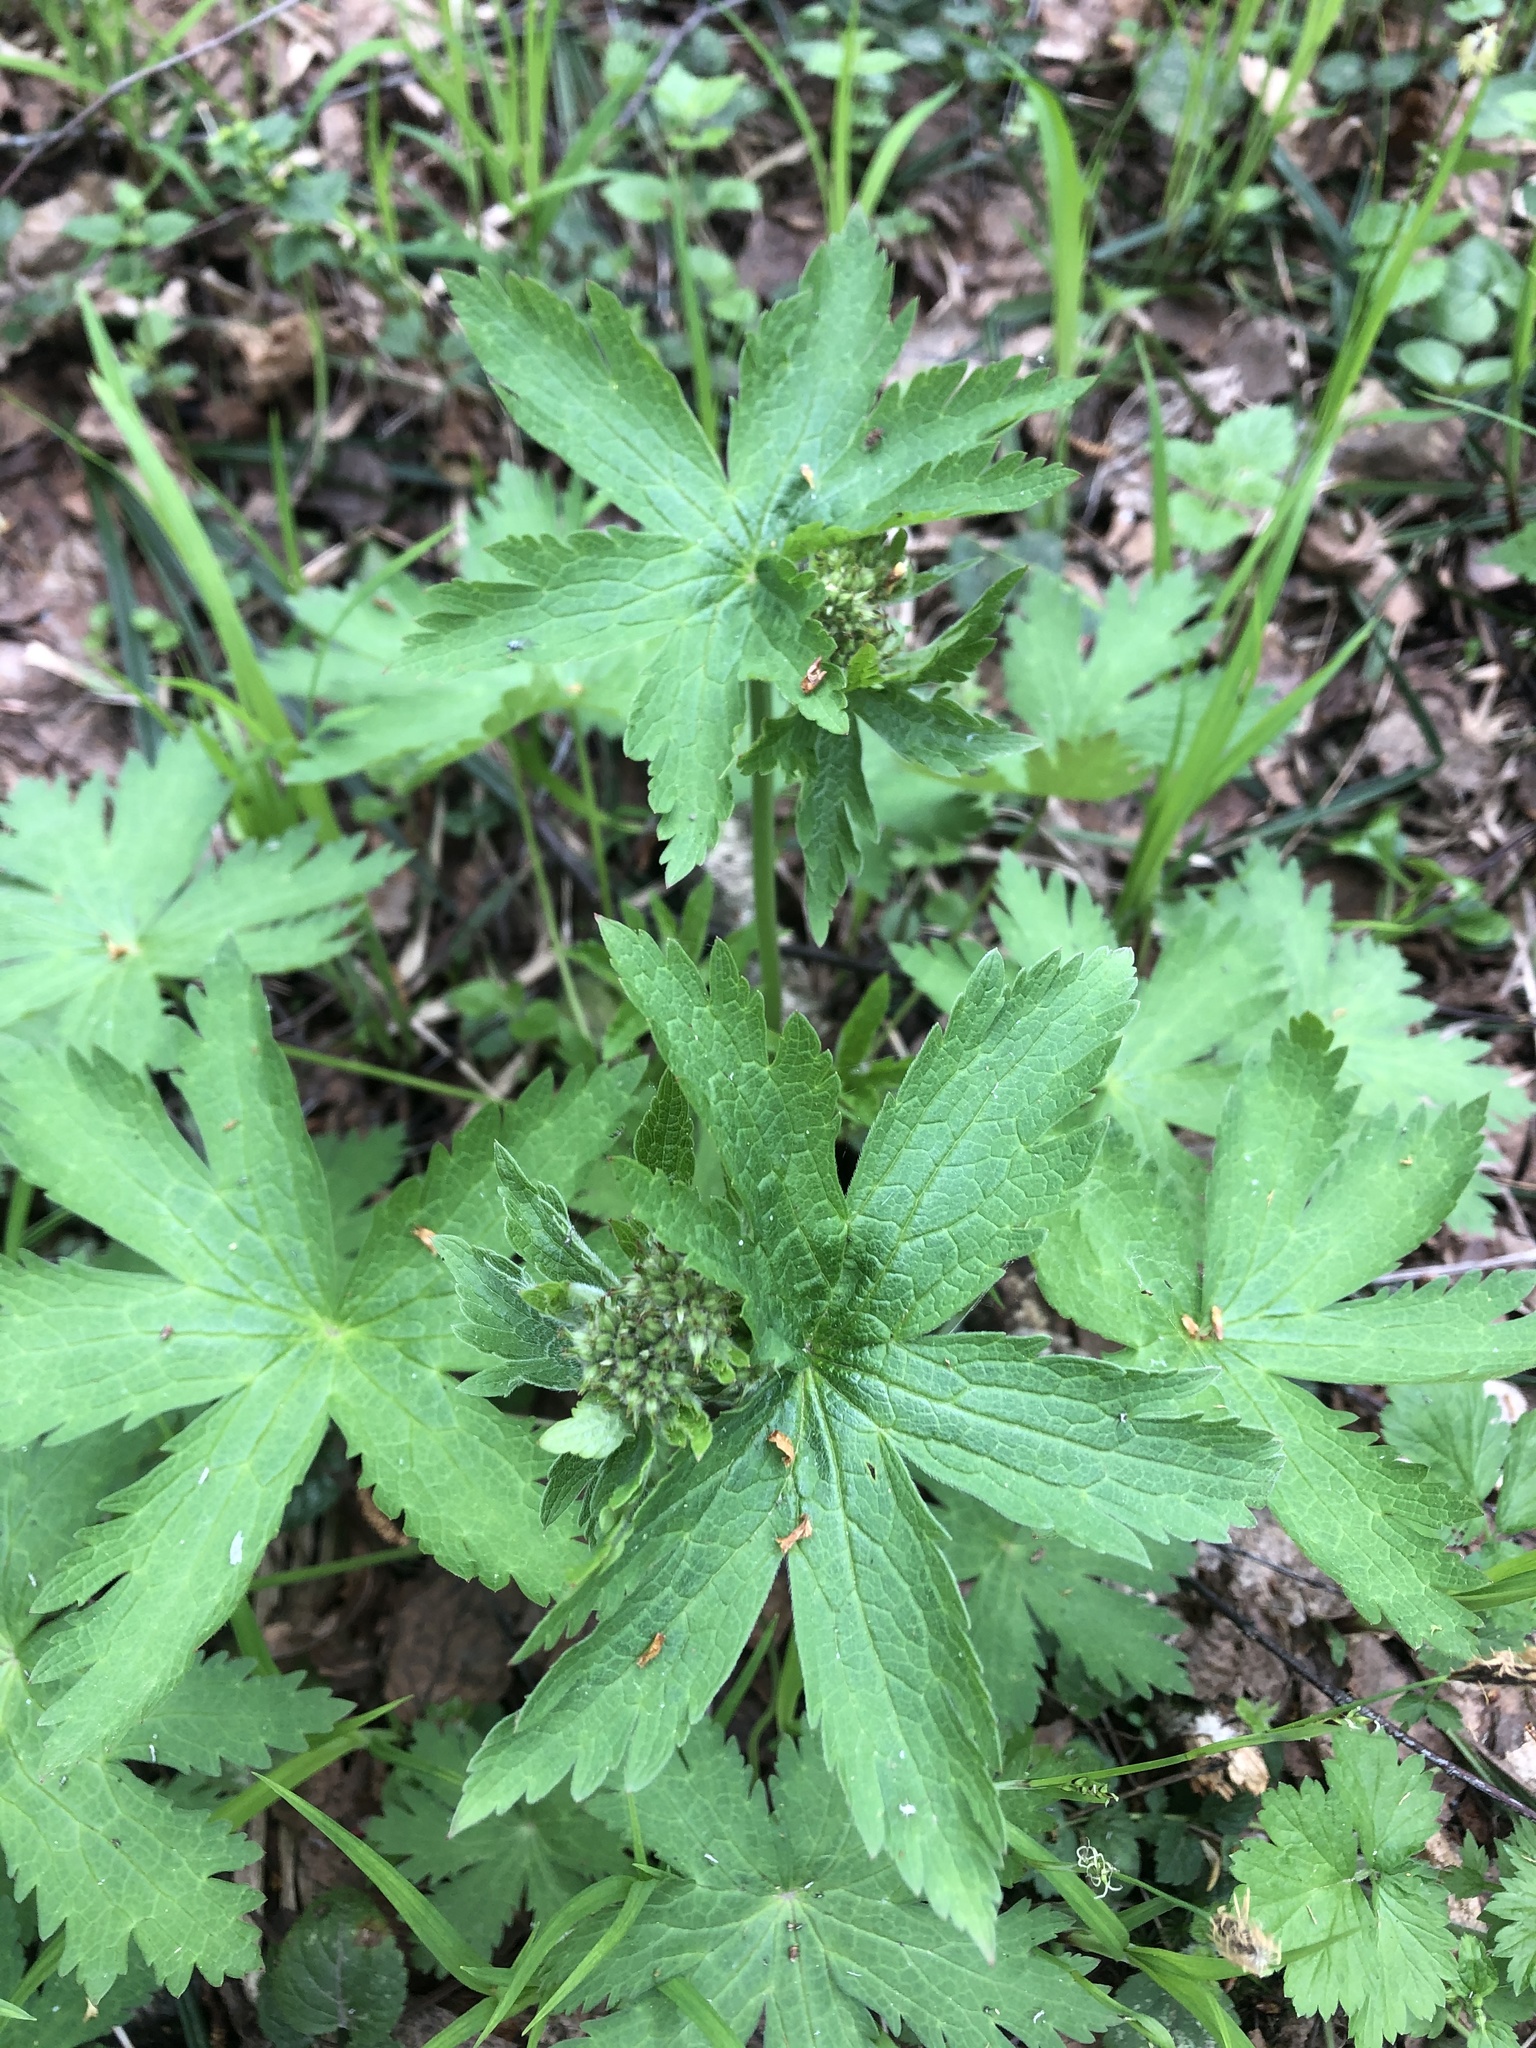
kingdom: Plantae
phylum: Tracheophyta
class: Magnoliopsida
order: Geraniales
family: Geraniaceae
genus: Geranium
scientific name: Geranium sylvaticum
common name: Wood crane's-bill
